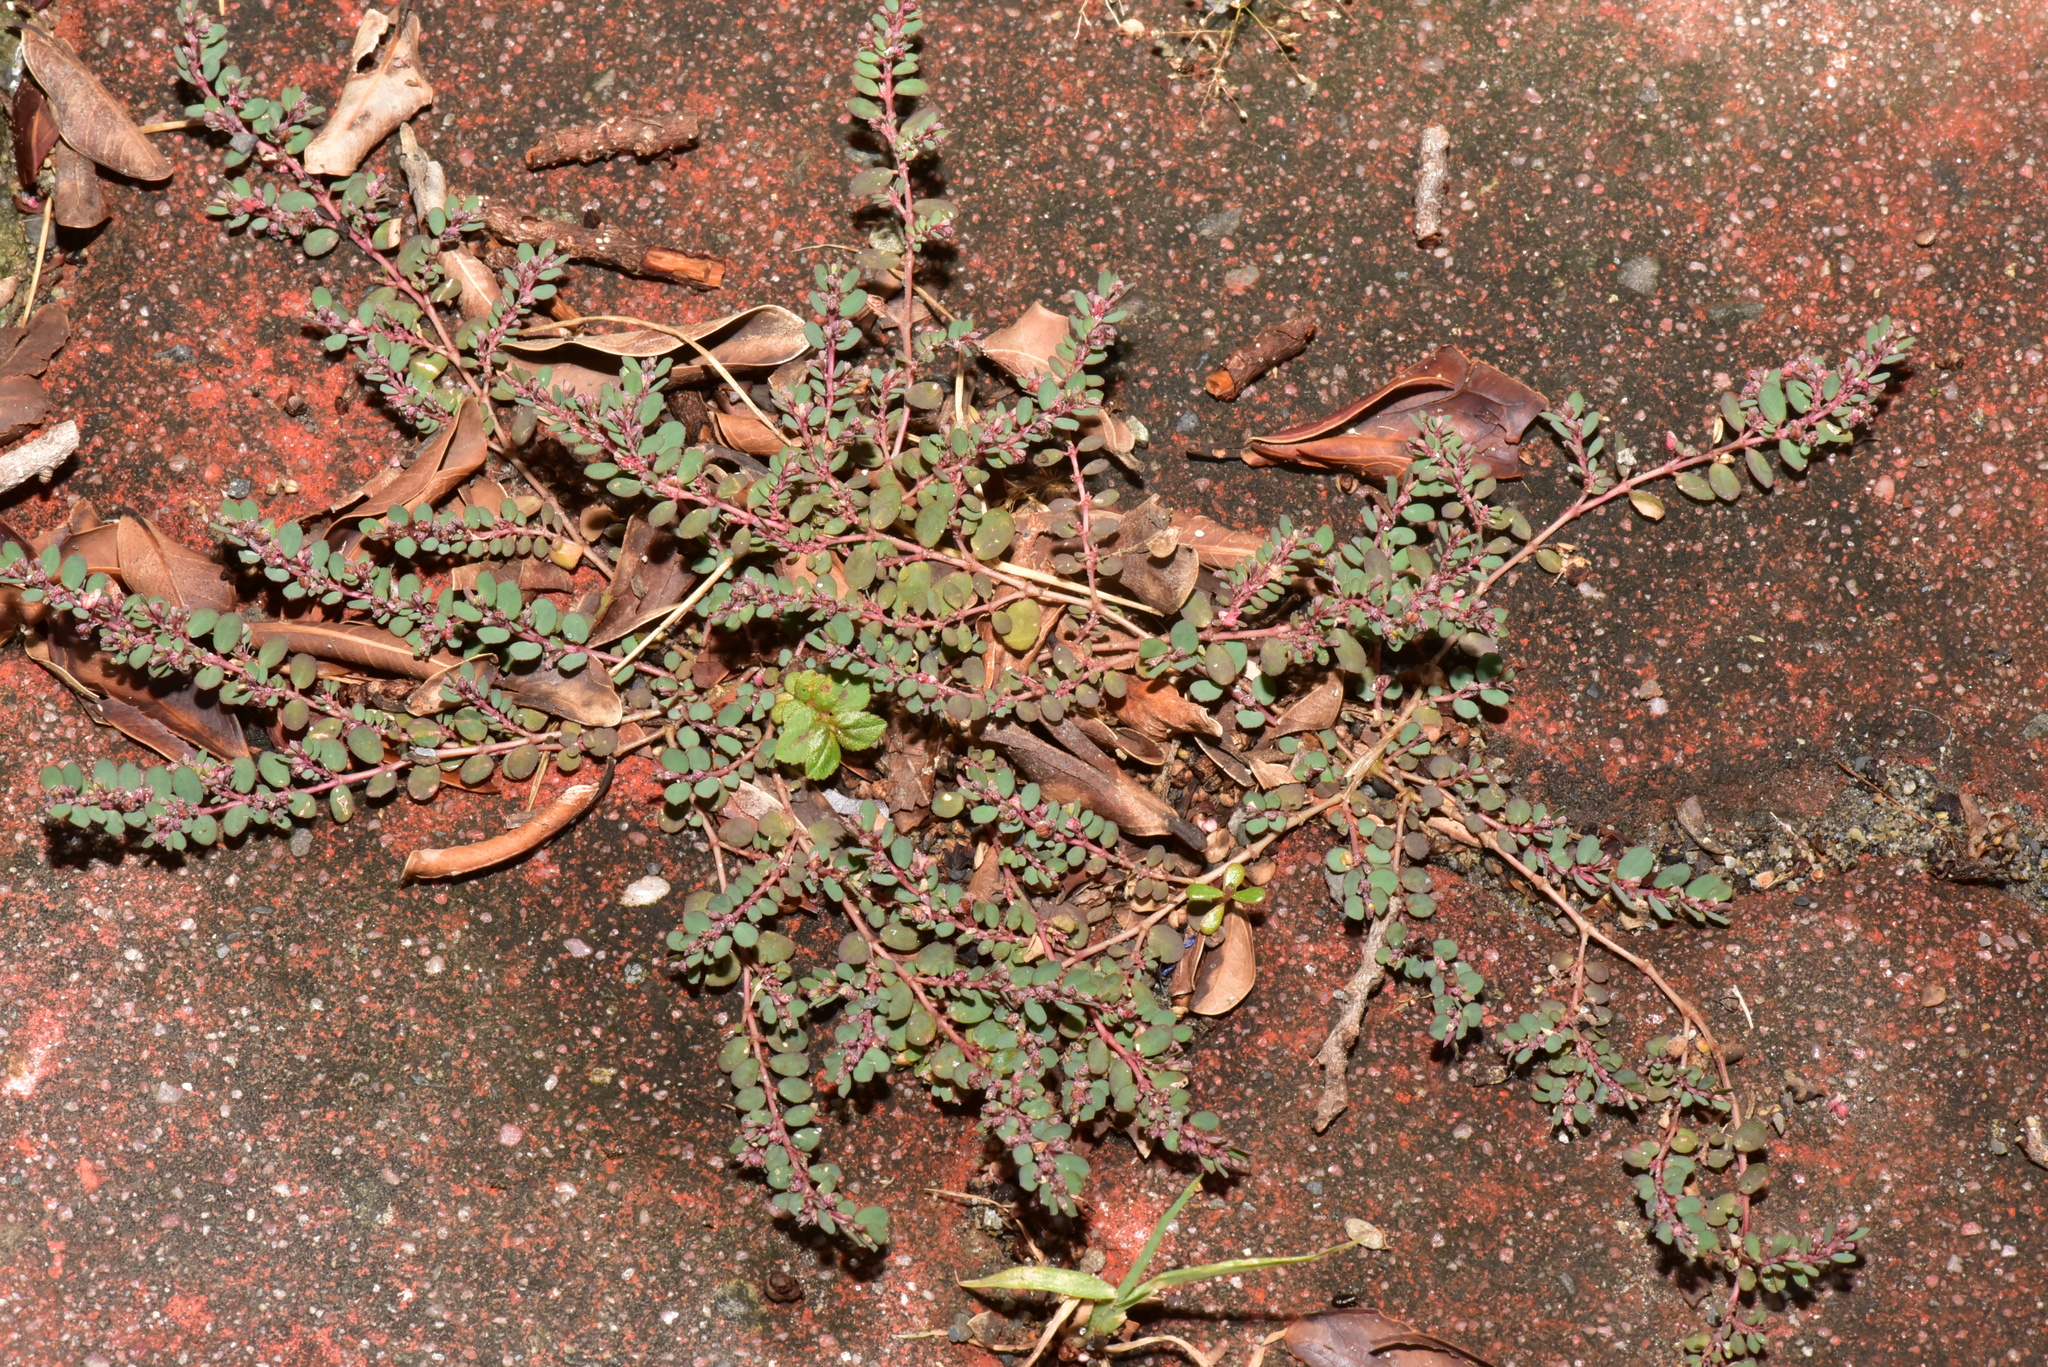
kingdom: Plantae
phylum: Tracheophyta
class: Magnoliopsida
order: Malpighiales
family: Euphorbiaceae
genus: Euphorbia
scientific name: Euphorbia thymifolia
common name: Gulf sandmat
